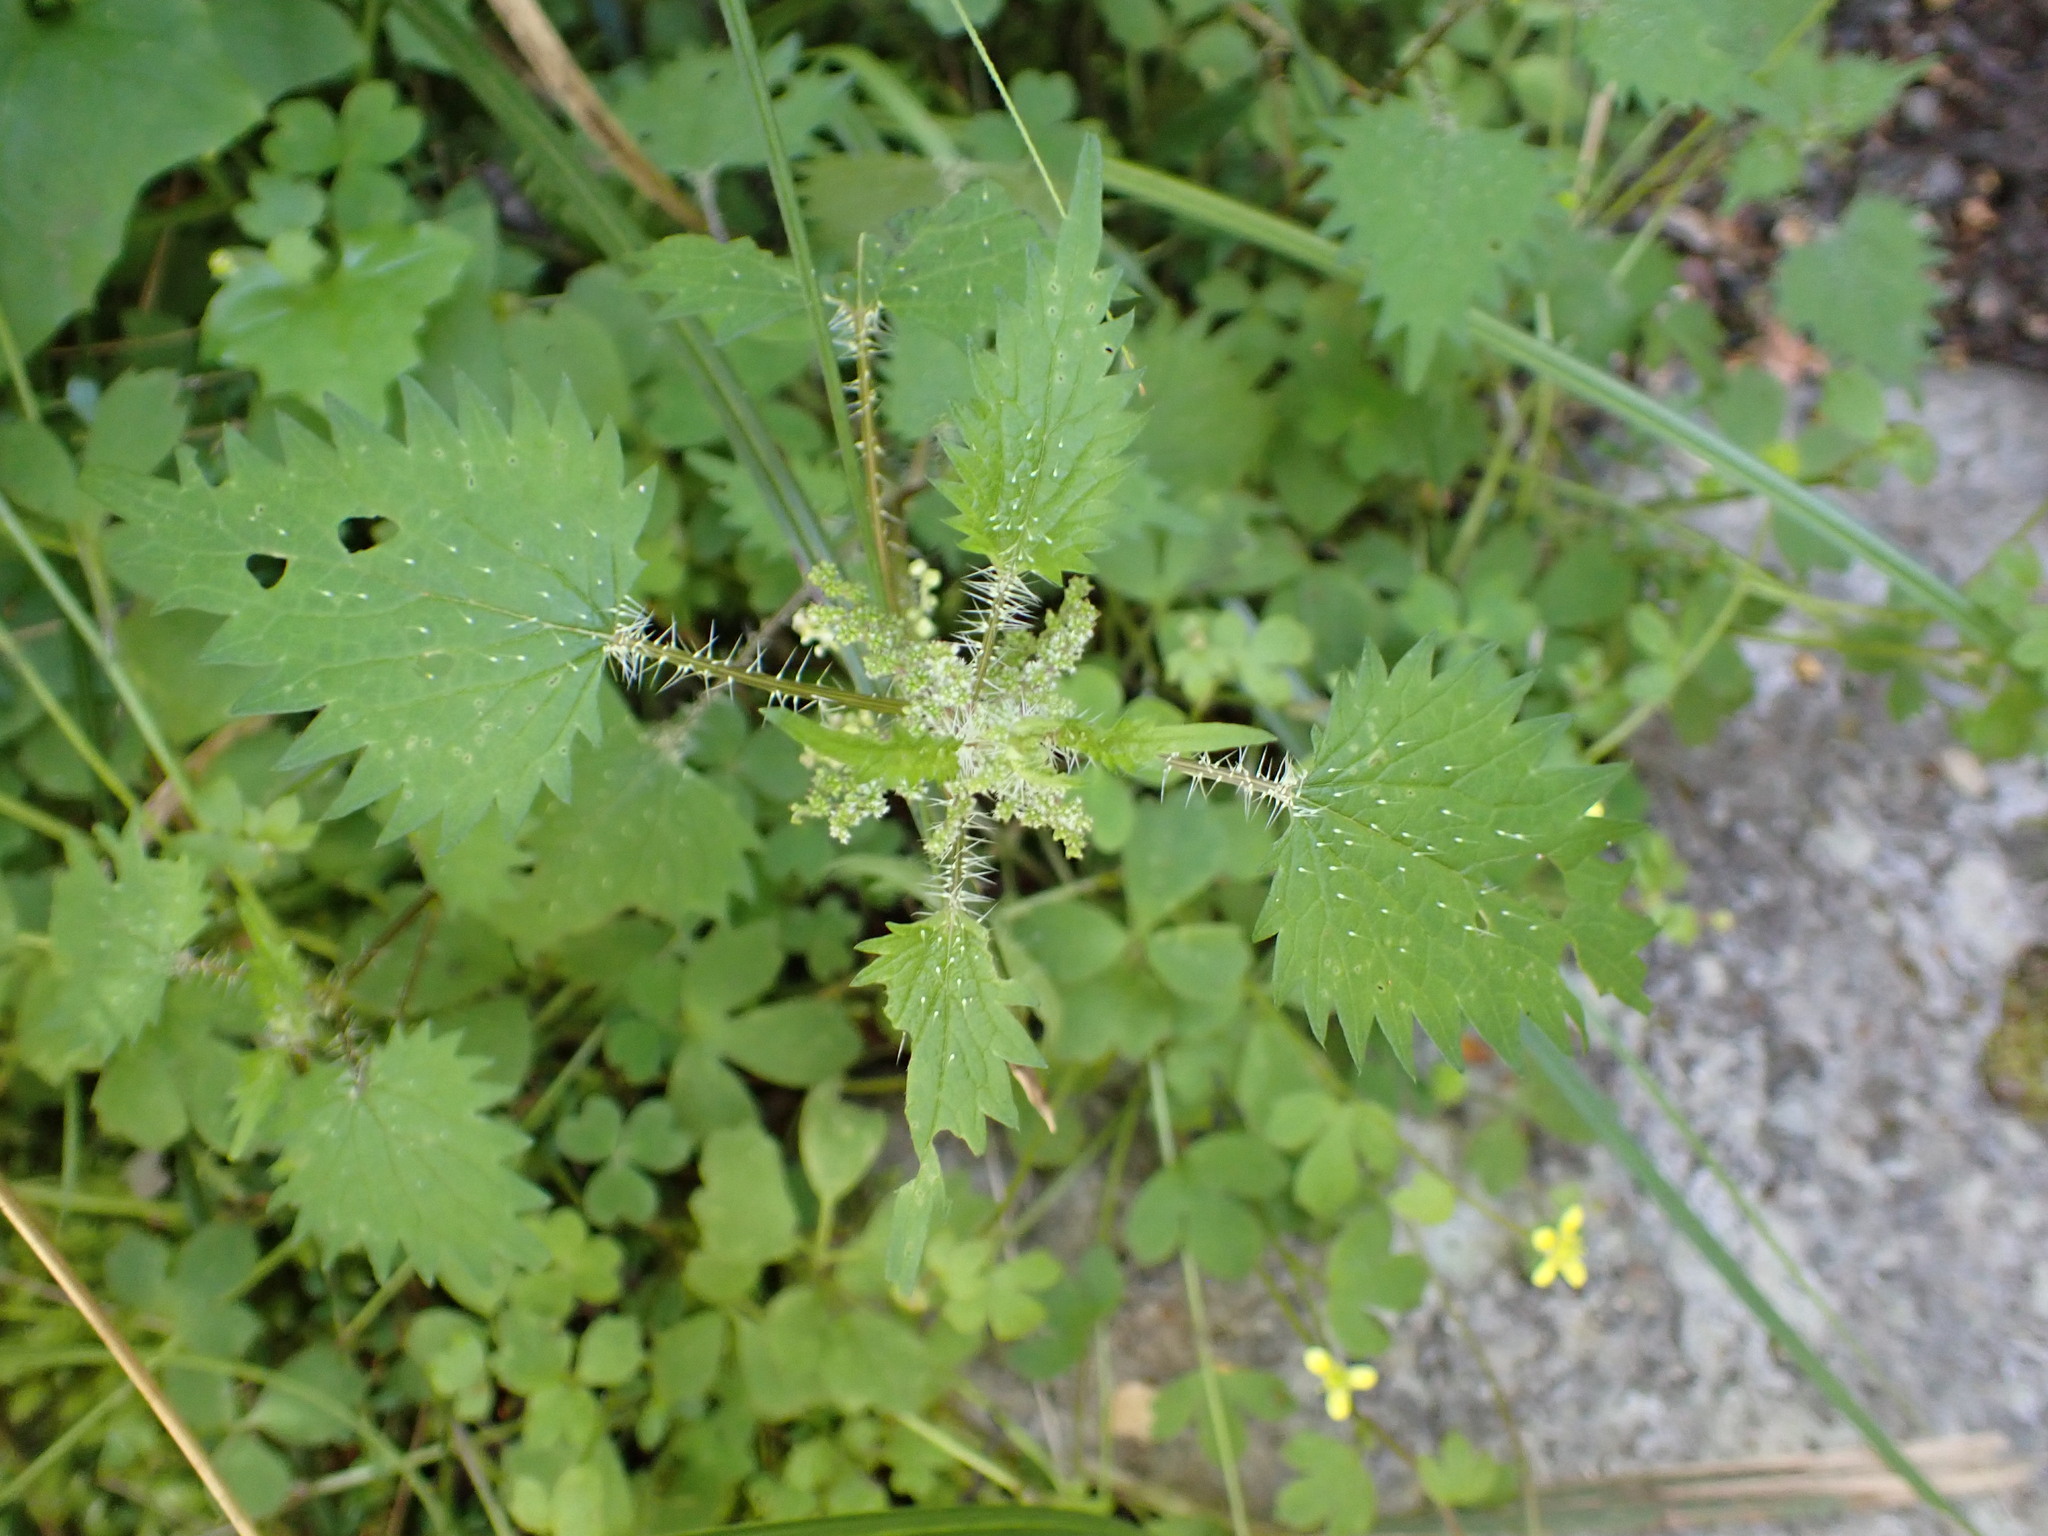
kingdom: Plantae
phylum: Tracheophyta
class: Magnoliopsida
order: Rosales
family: Urticaceae
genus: Urtica
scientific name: Urtica sykesii
